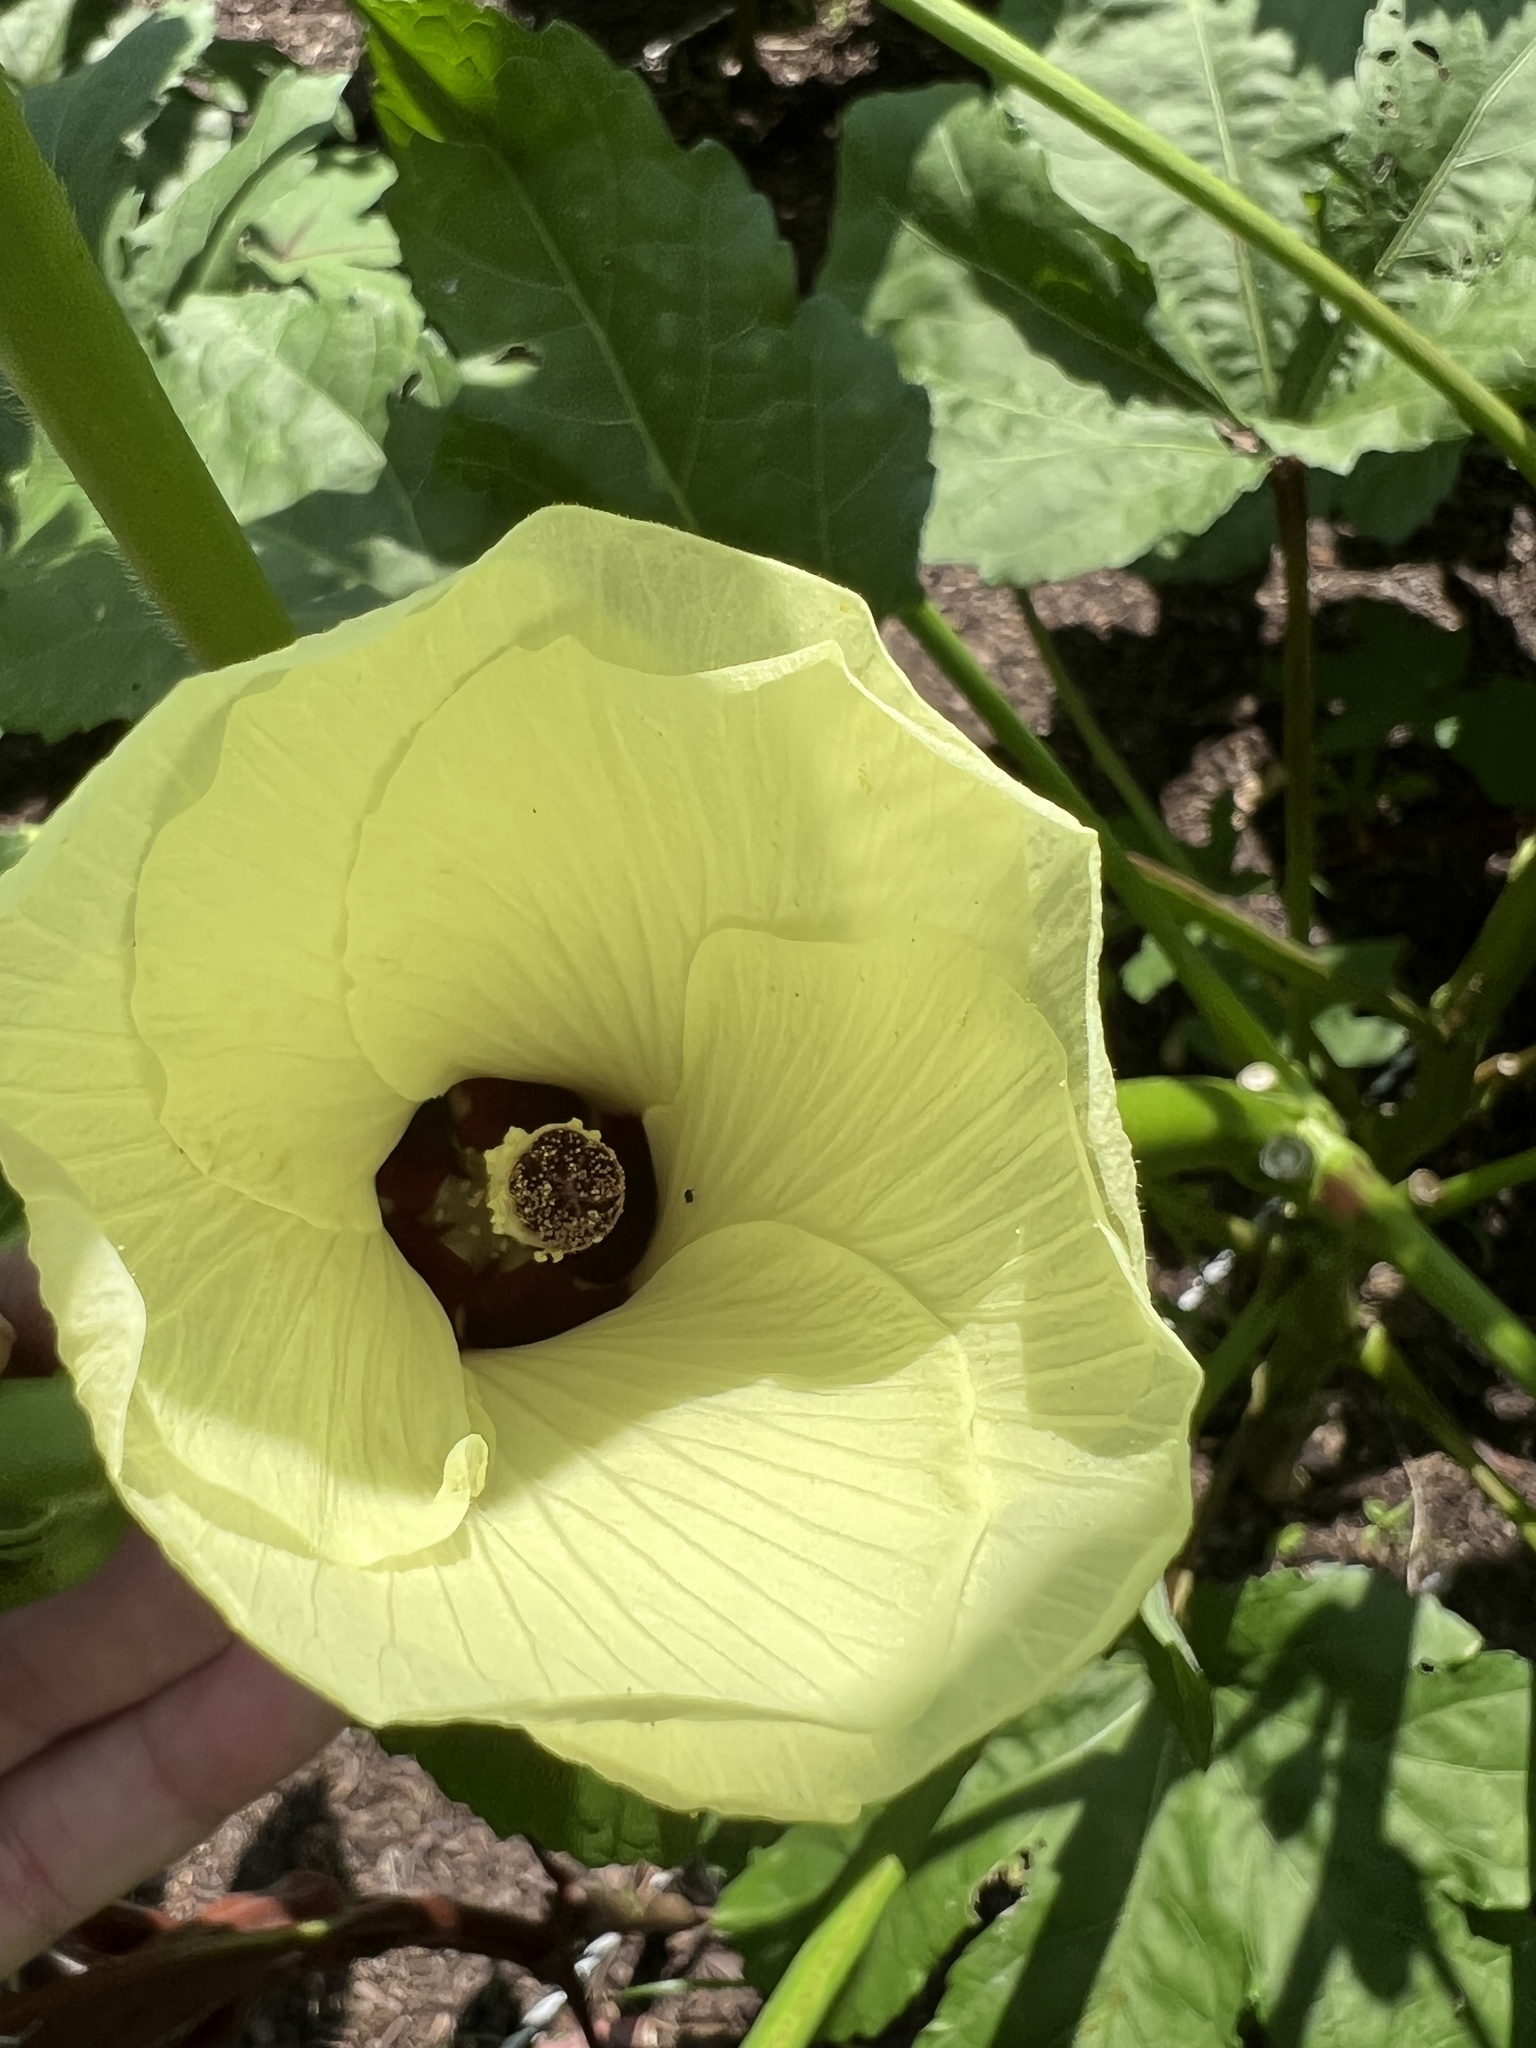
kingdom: Plantae
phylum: Tracheophyta
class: Magnoliopsida
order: Malvales
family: Malvaceae
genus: Abelmoschus
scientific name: Abelmoschus esculentus
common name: Okra
